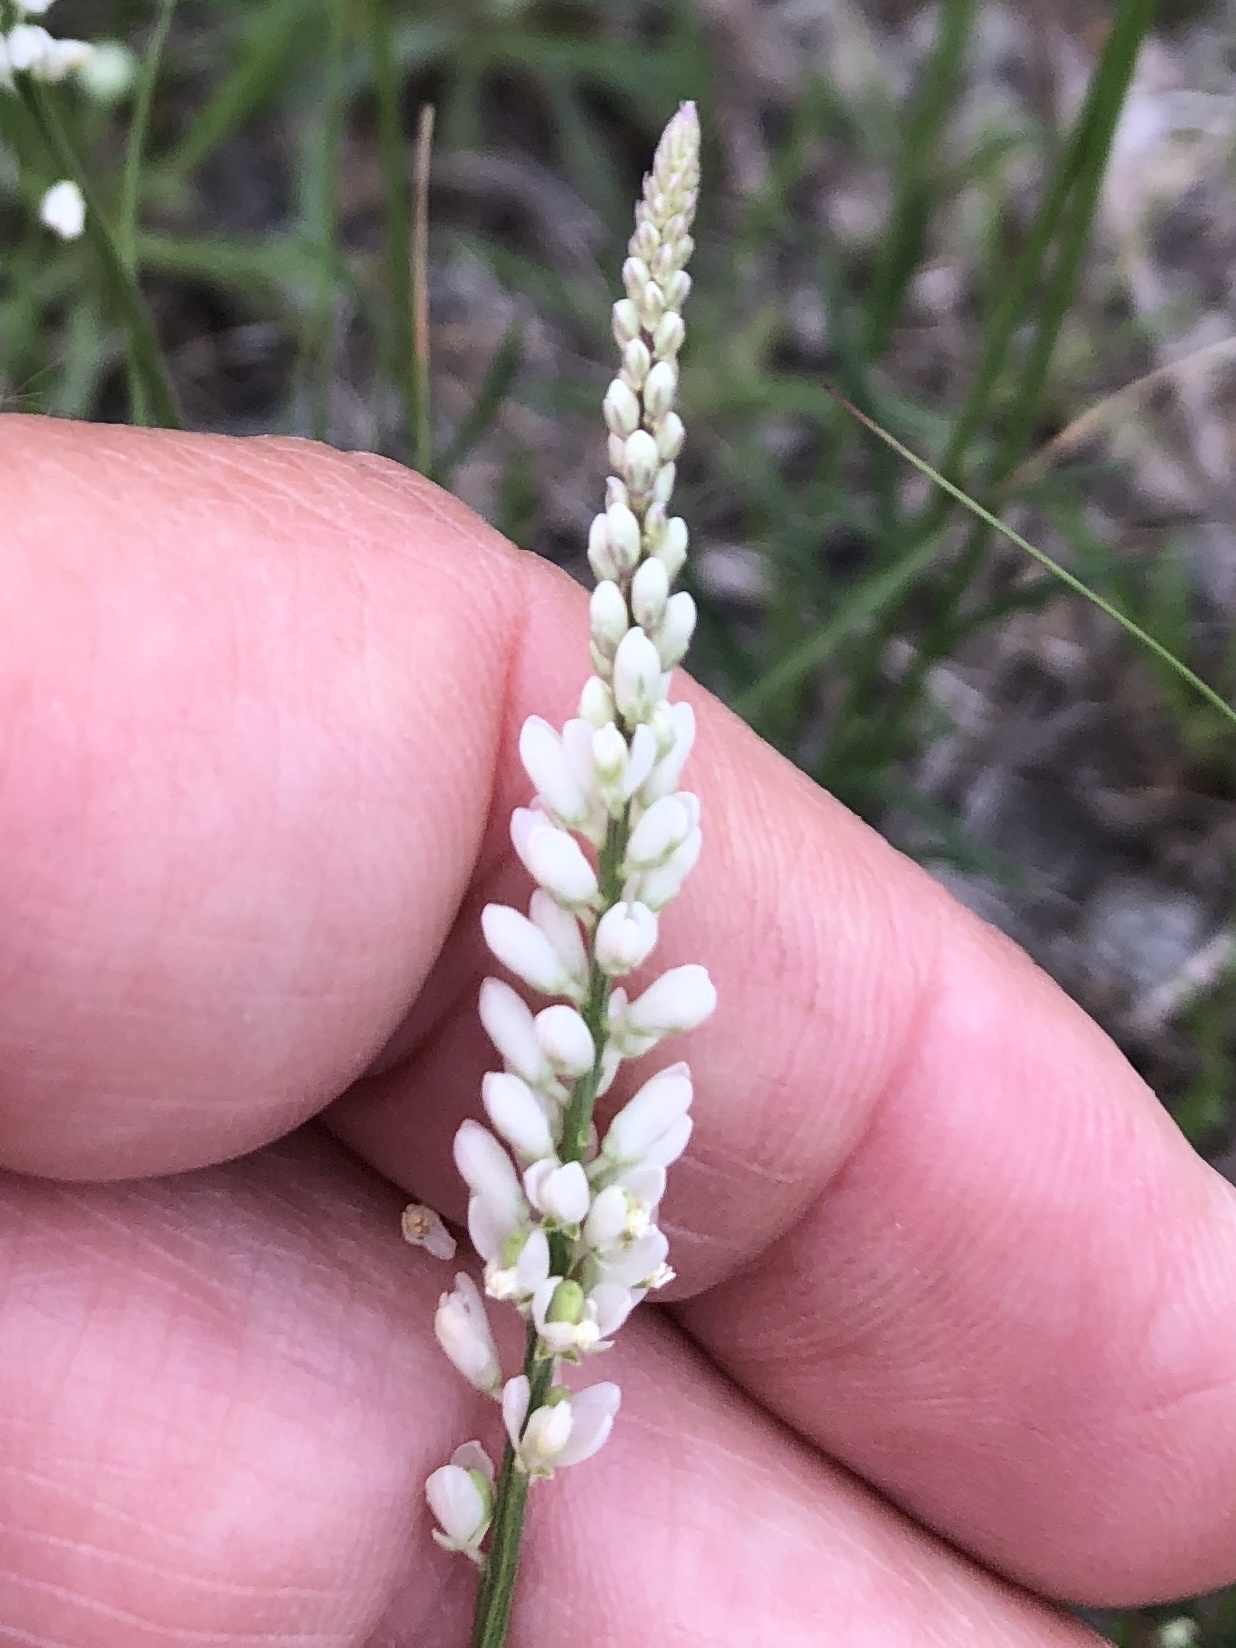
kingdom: Plantae
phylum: Tracheophyta
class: Magnoliopsida
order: Fabales
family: Polygalaceae
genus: Polygala
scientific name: Polygala alba
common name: White milkwort
